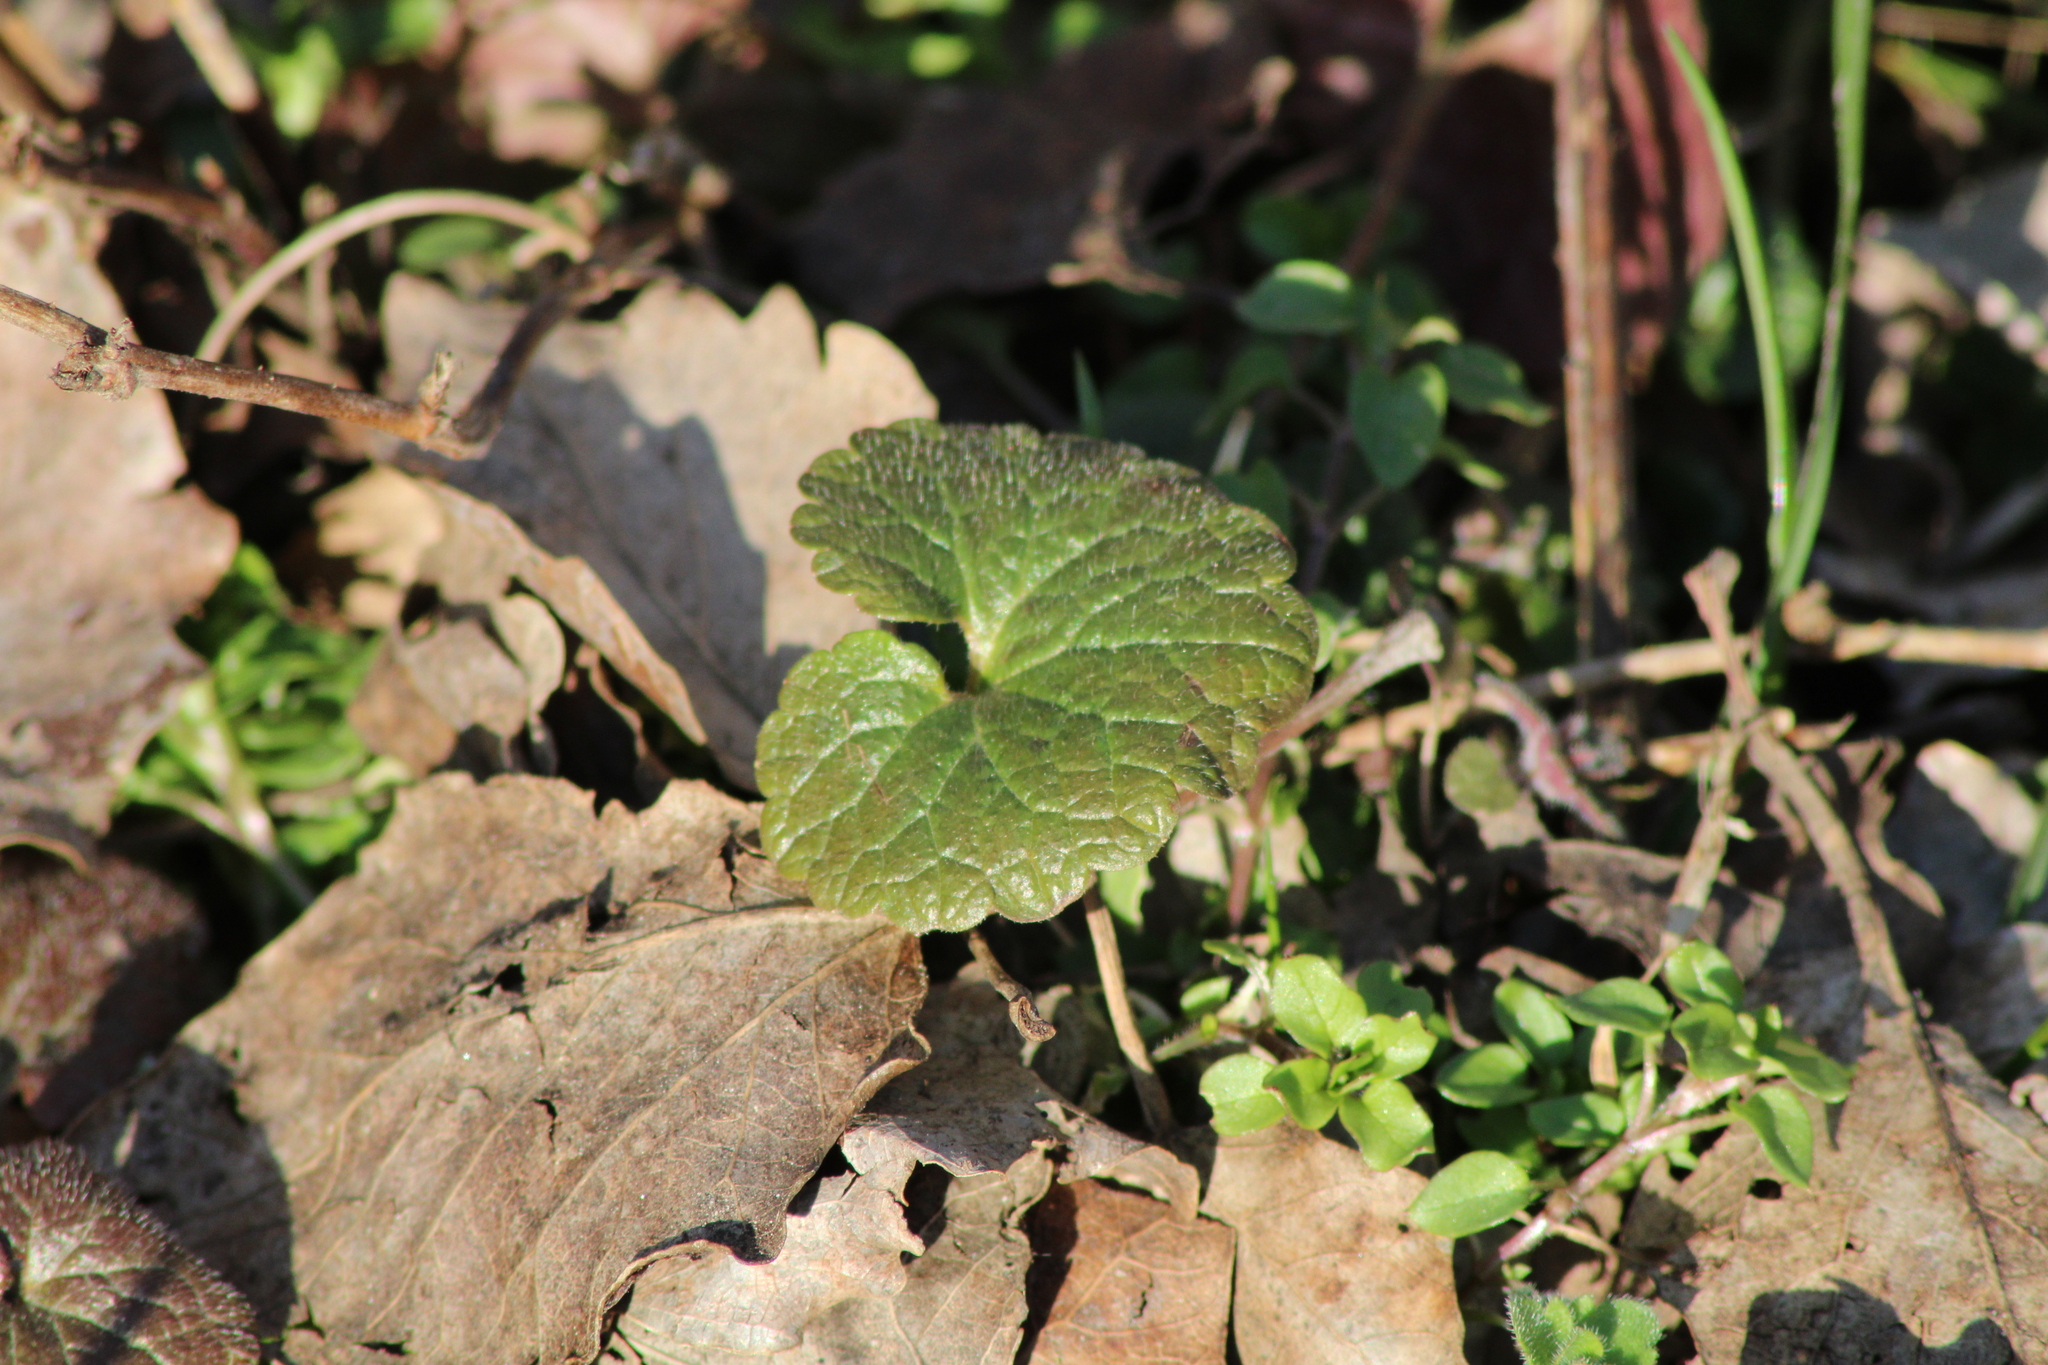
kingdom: Plantae
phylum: Tracheophyta
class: Magnoliopsida
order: Lamiales
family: Lamiaceae
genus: Glechoma
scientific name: Glechoma hederacea
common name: Ground ivy
